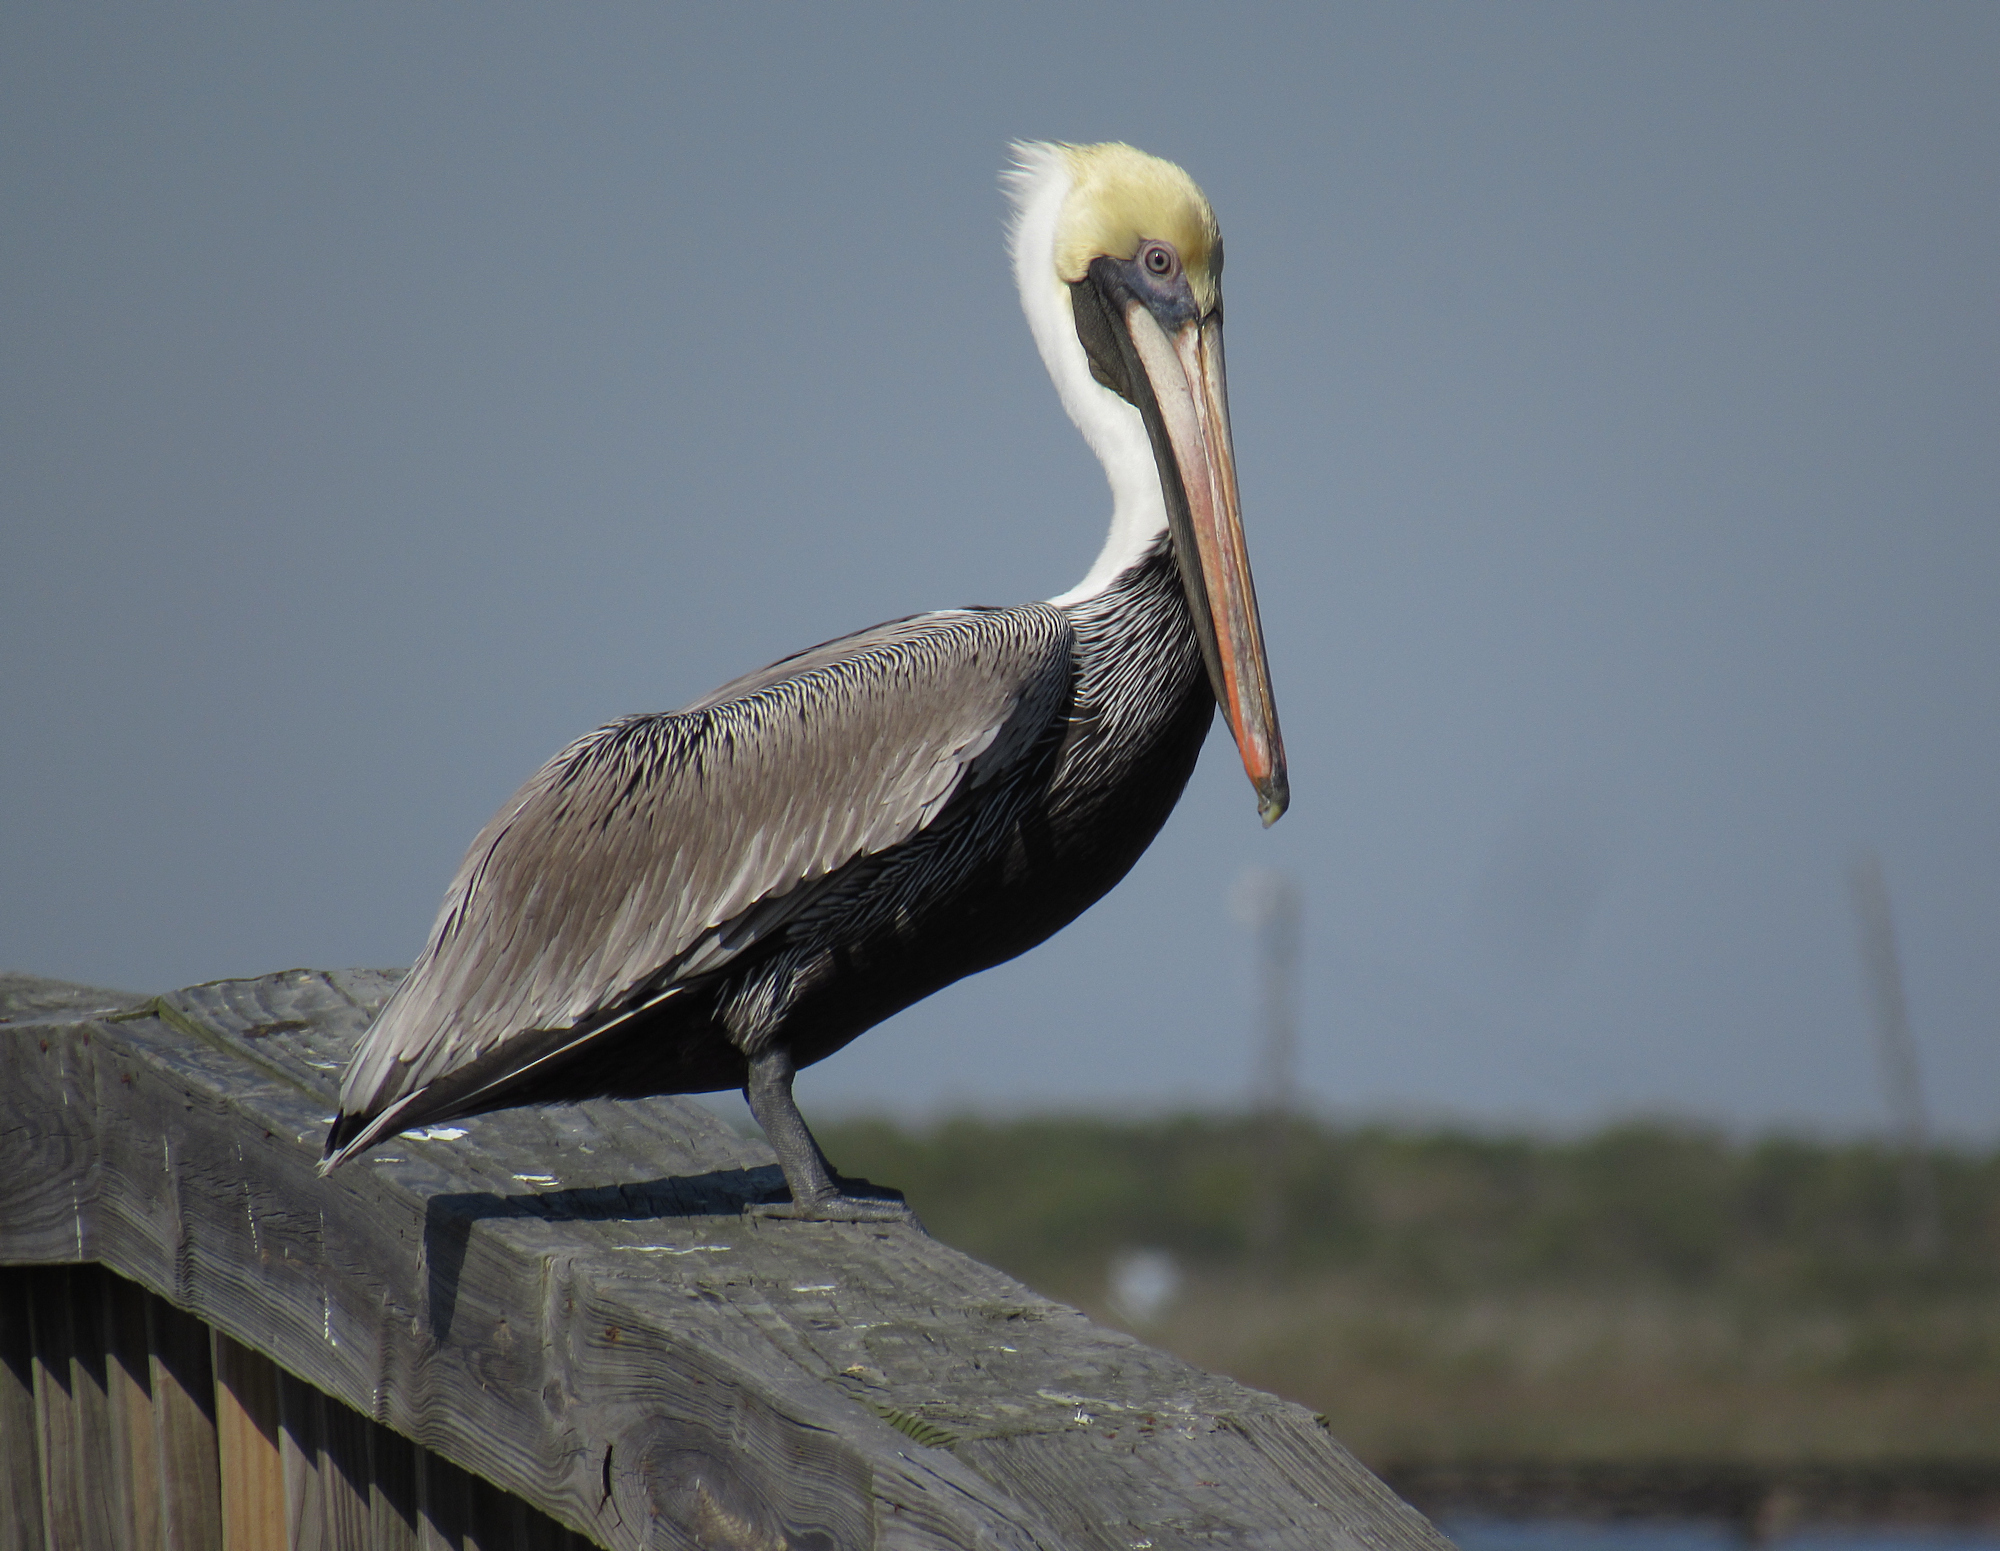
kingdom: Animalia
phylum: Chordata
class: Aves
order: Pelecaniformes
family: Pelecanidae
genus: Pelecanus
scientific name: Pelecanus occidentalis
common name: Brown pelican
